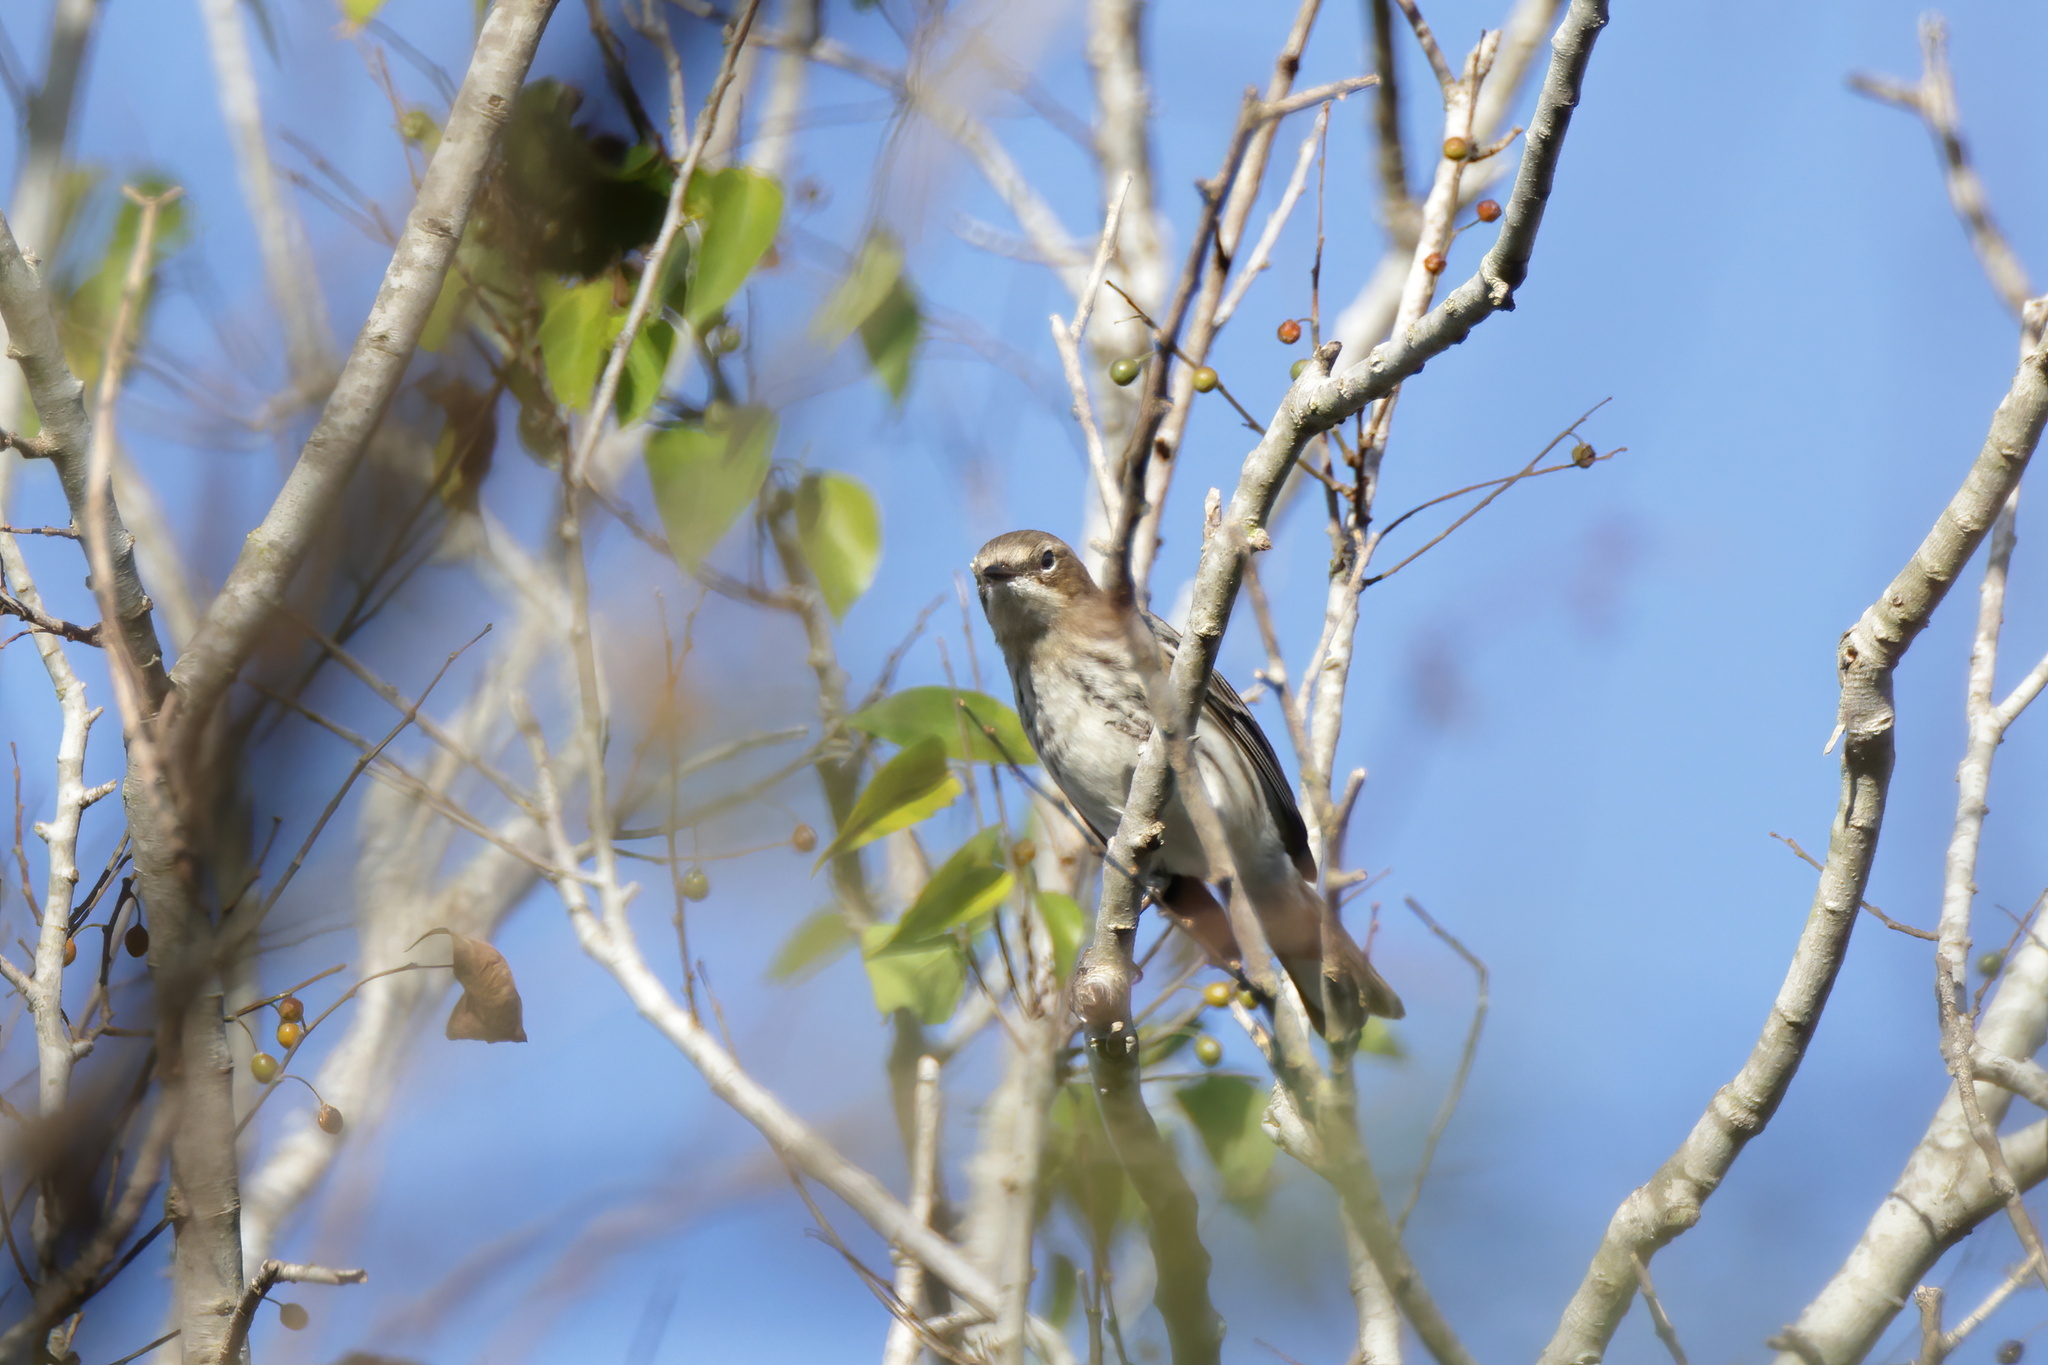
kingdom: Animalia
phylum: Chordata
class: Aves
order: Passeriformes
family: Parulidae
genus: Setophaga
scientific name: Setophaga coronata
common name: Myrtle warbler
